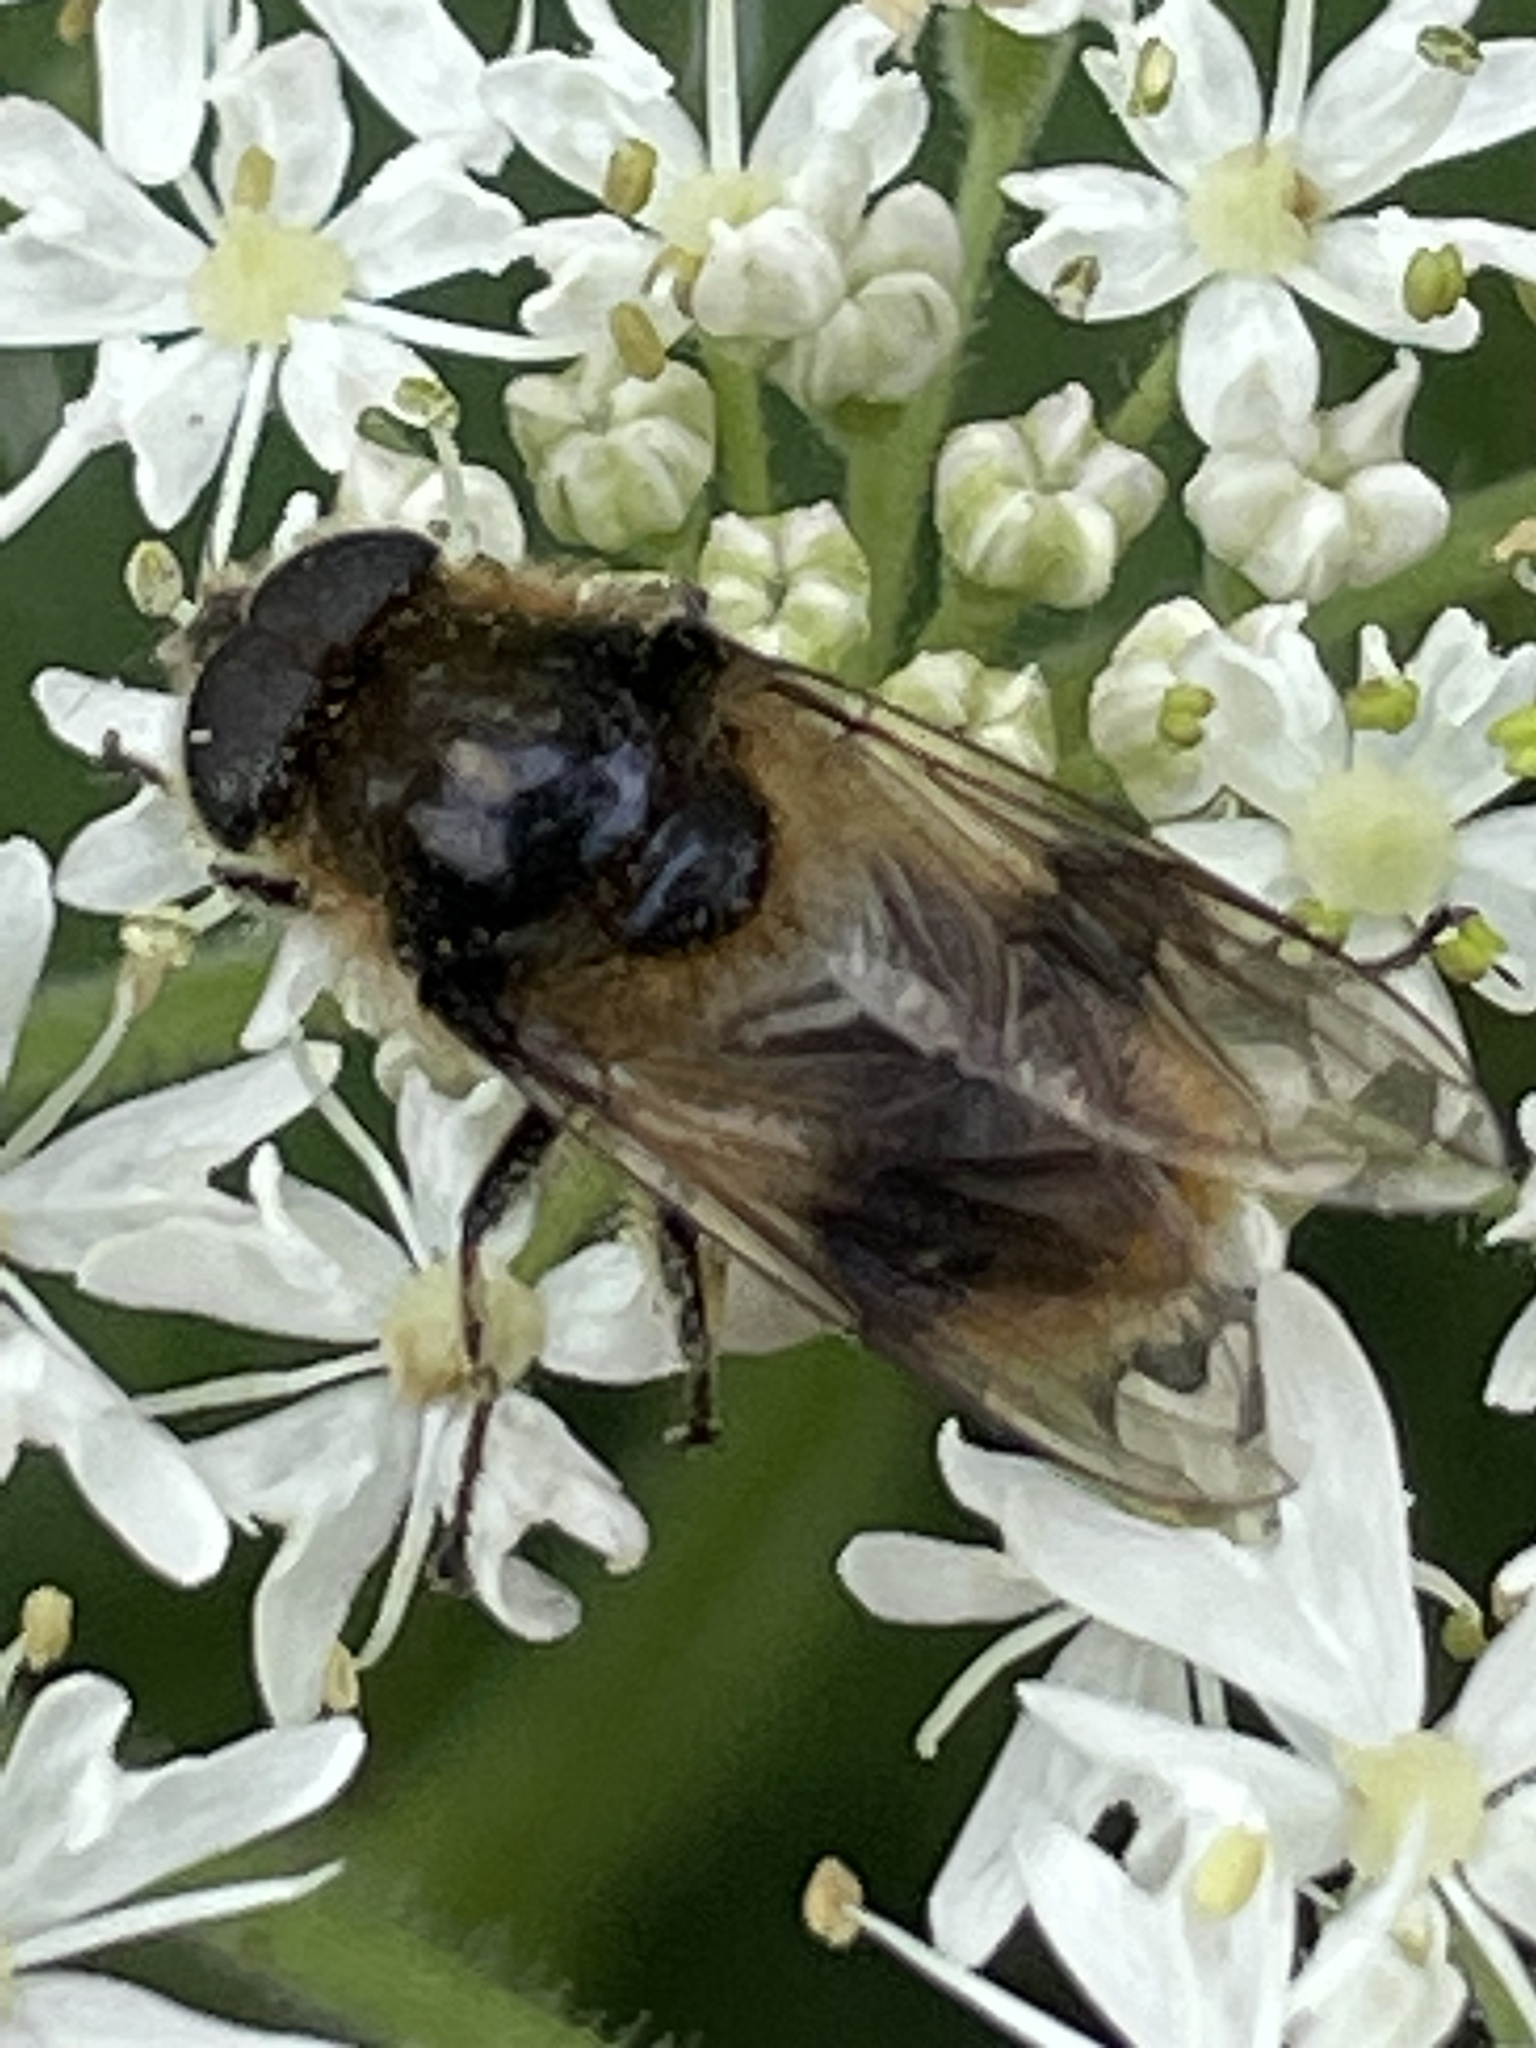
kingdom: Animalia
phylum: Arthropoda
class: Insecta
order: Diptera
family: Syrphidae
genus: Cheilosia
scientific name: Cheilosia illustrata
